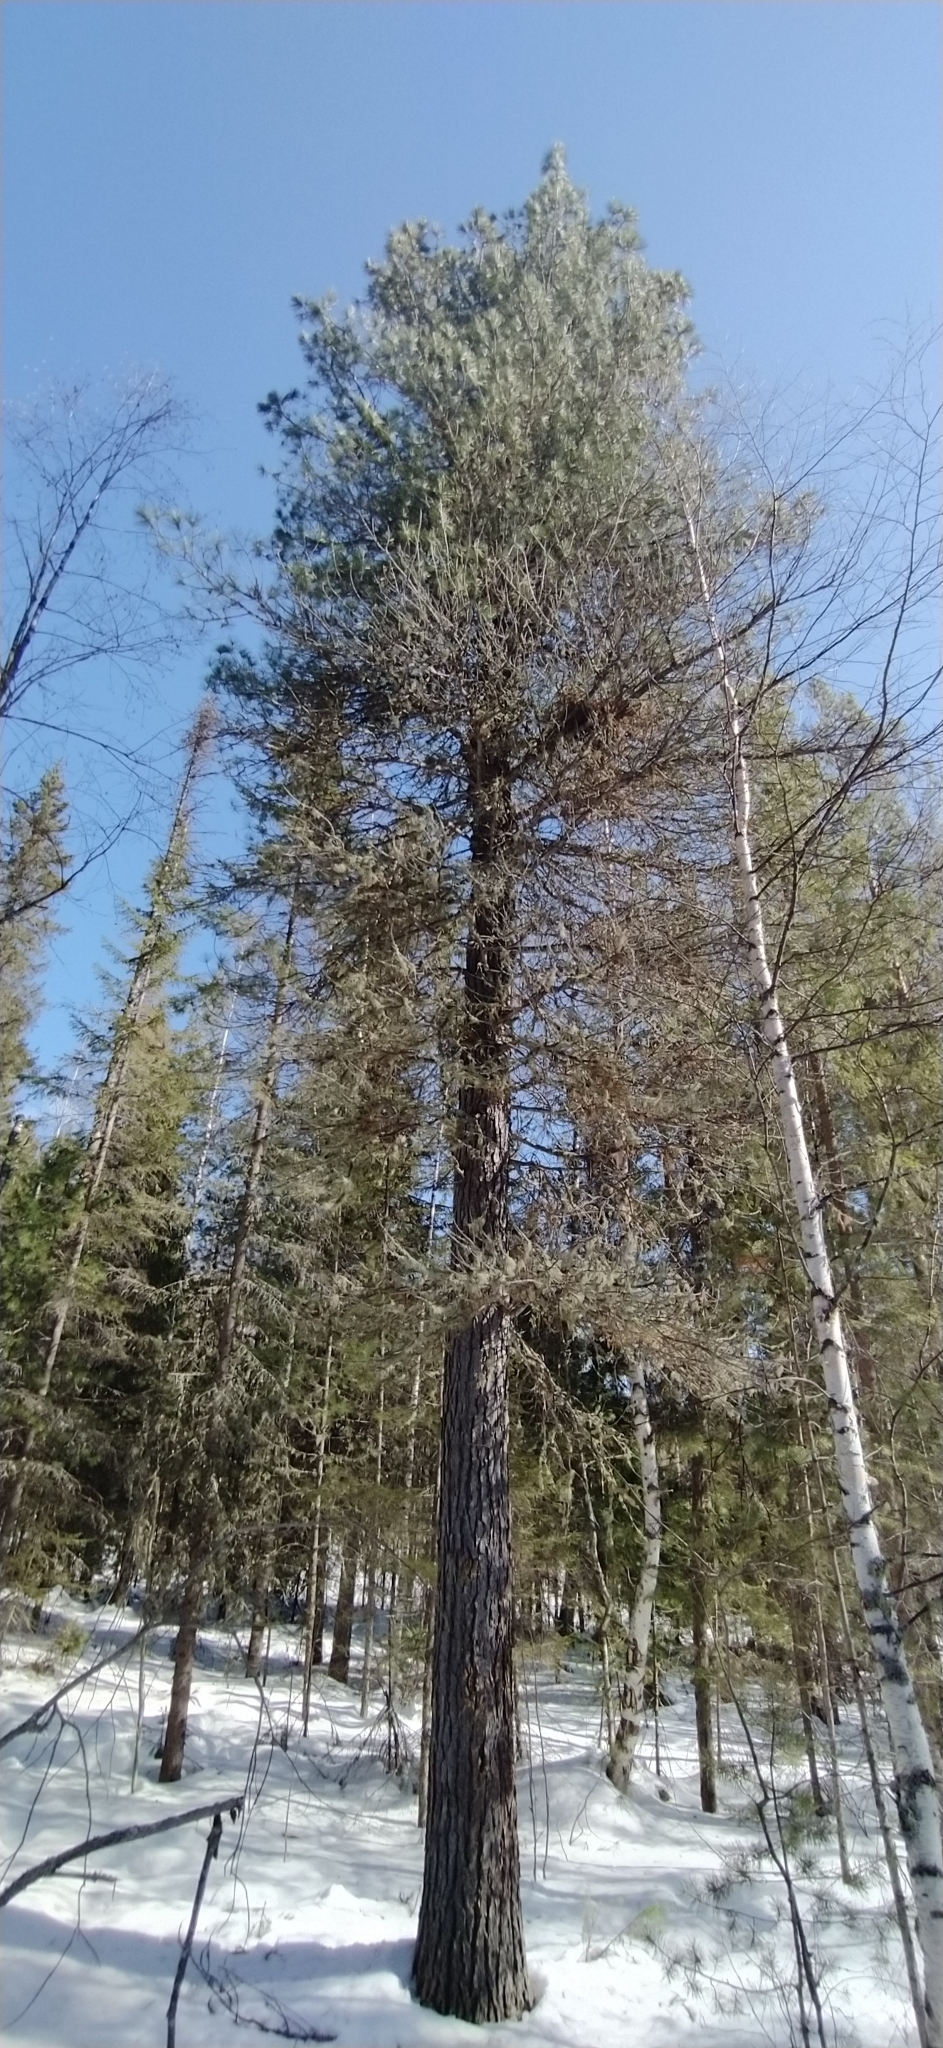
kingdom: Plantae
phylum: Tracheophyta
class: Pinopsida
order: Pinales
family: Pinaceae
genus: Pinus
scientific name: Pinus sibirica
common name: Siberian pine
